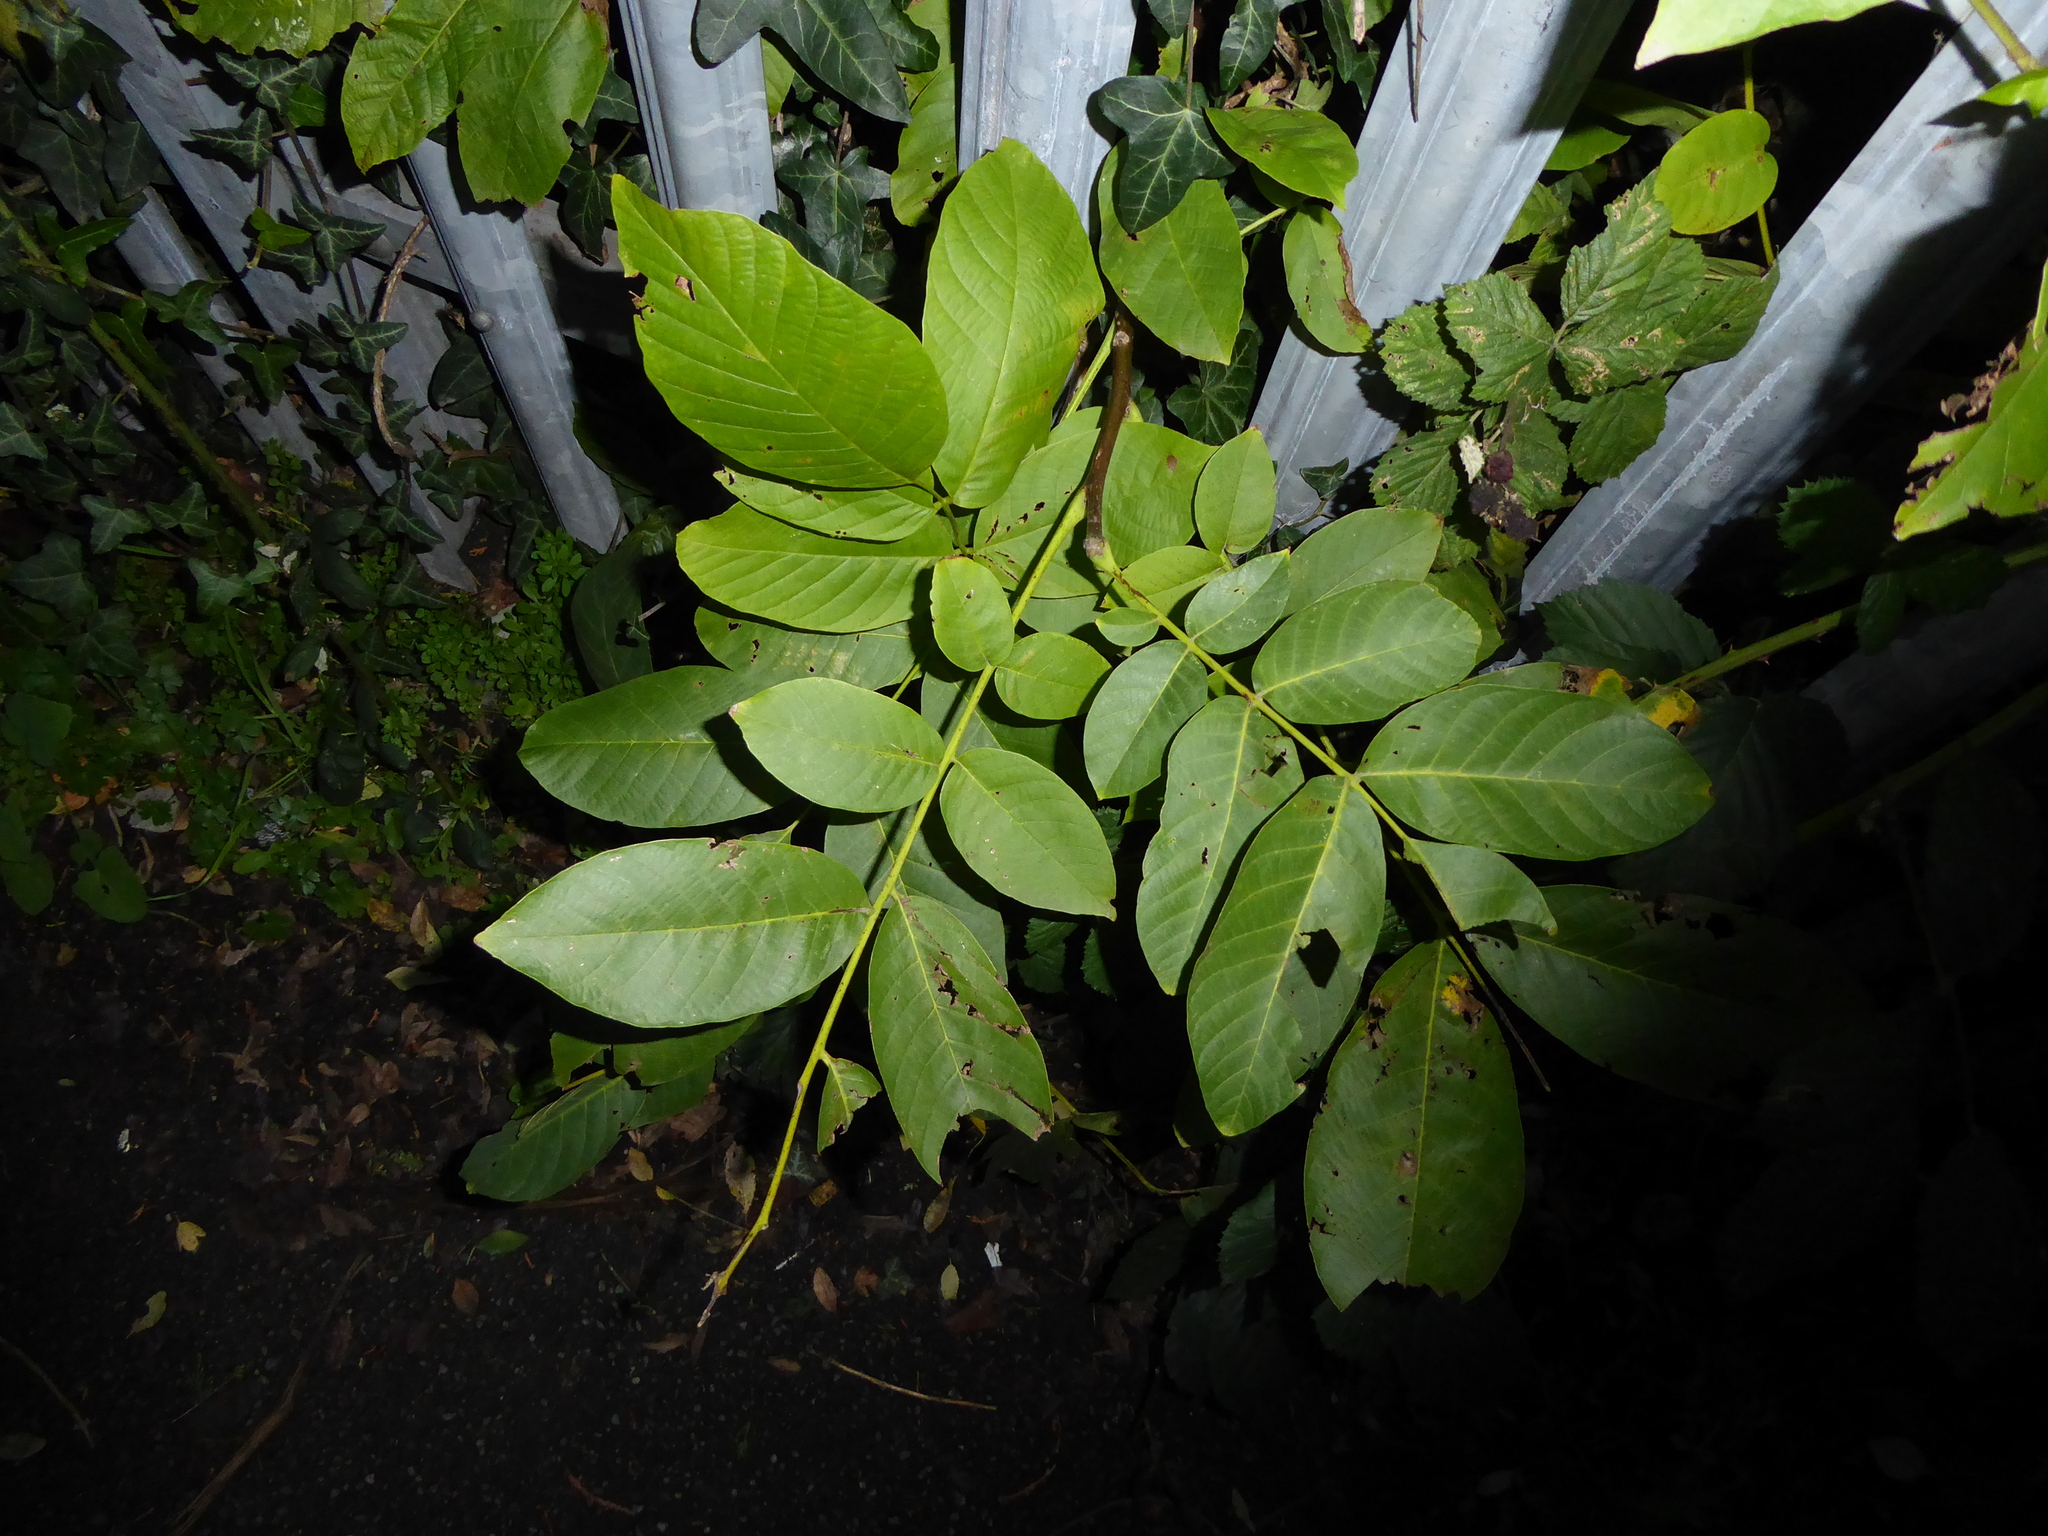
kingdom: Plantae
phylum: Tracheophyta
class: Magnoliopsida
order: Fagales
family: Juglandaceae
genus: Juglans
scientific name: Juglans regia
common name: Walnut
